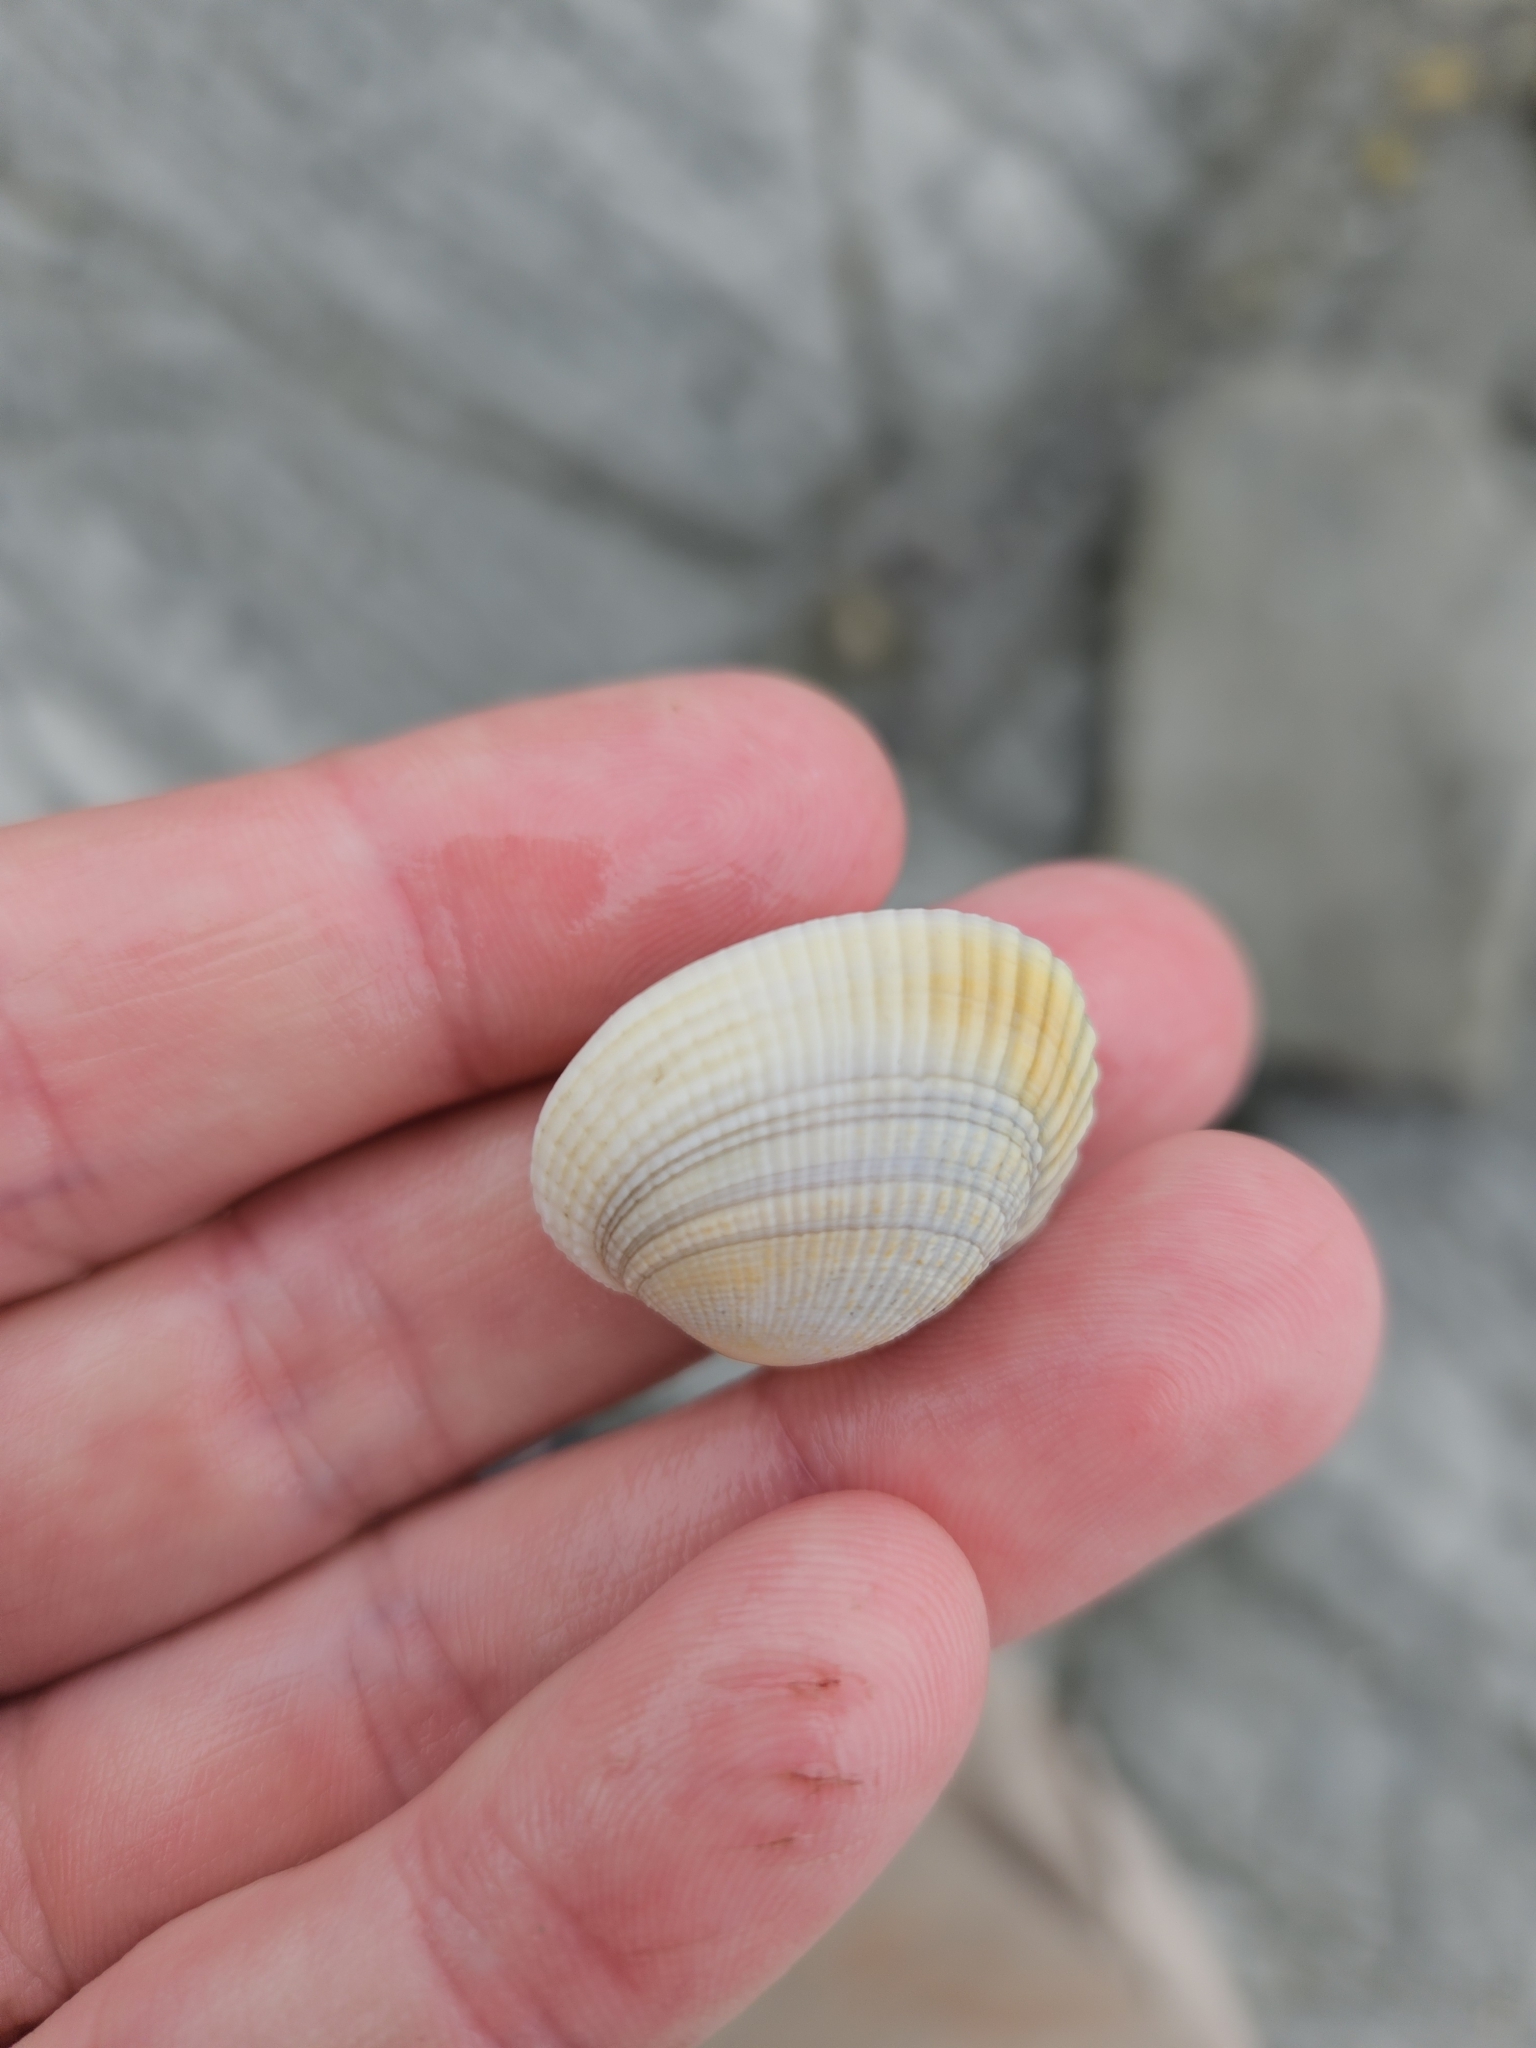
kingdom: Animalia
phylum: Mollusca
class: Bivalvia
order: Venerida
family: Veneridae
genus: Leukoma
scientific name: Leukoma crassicosta
